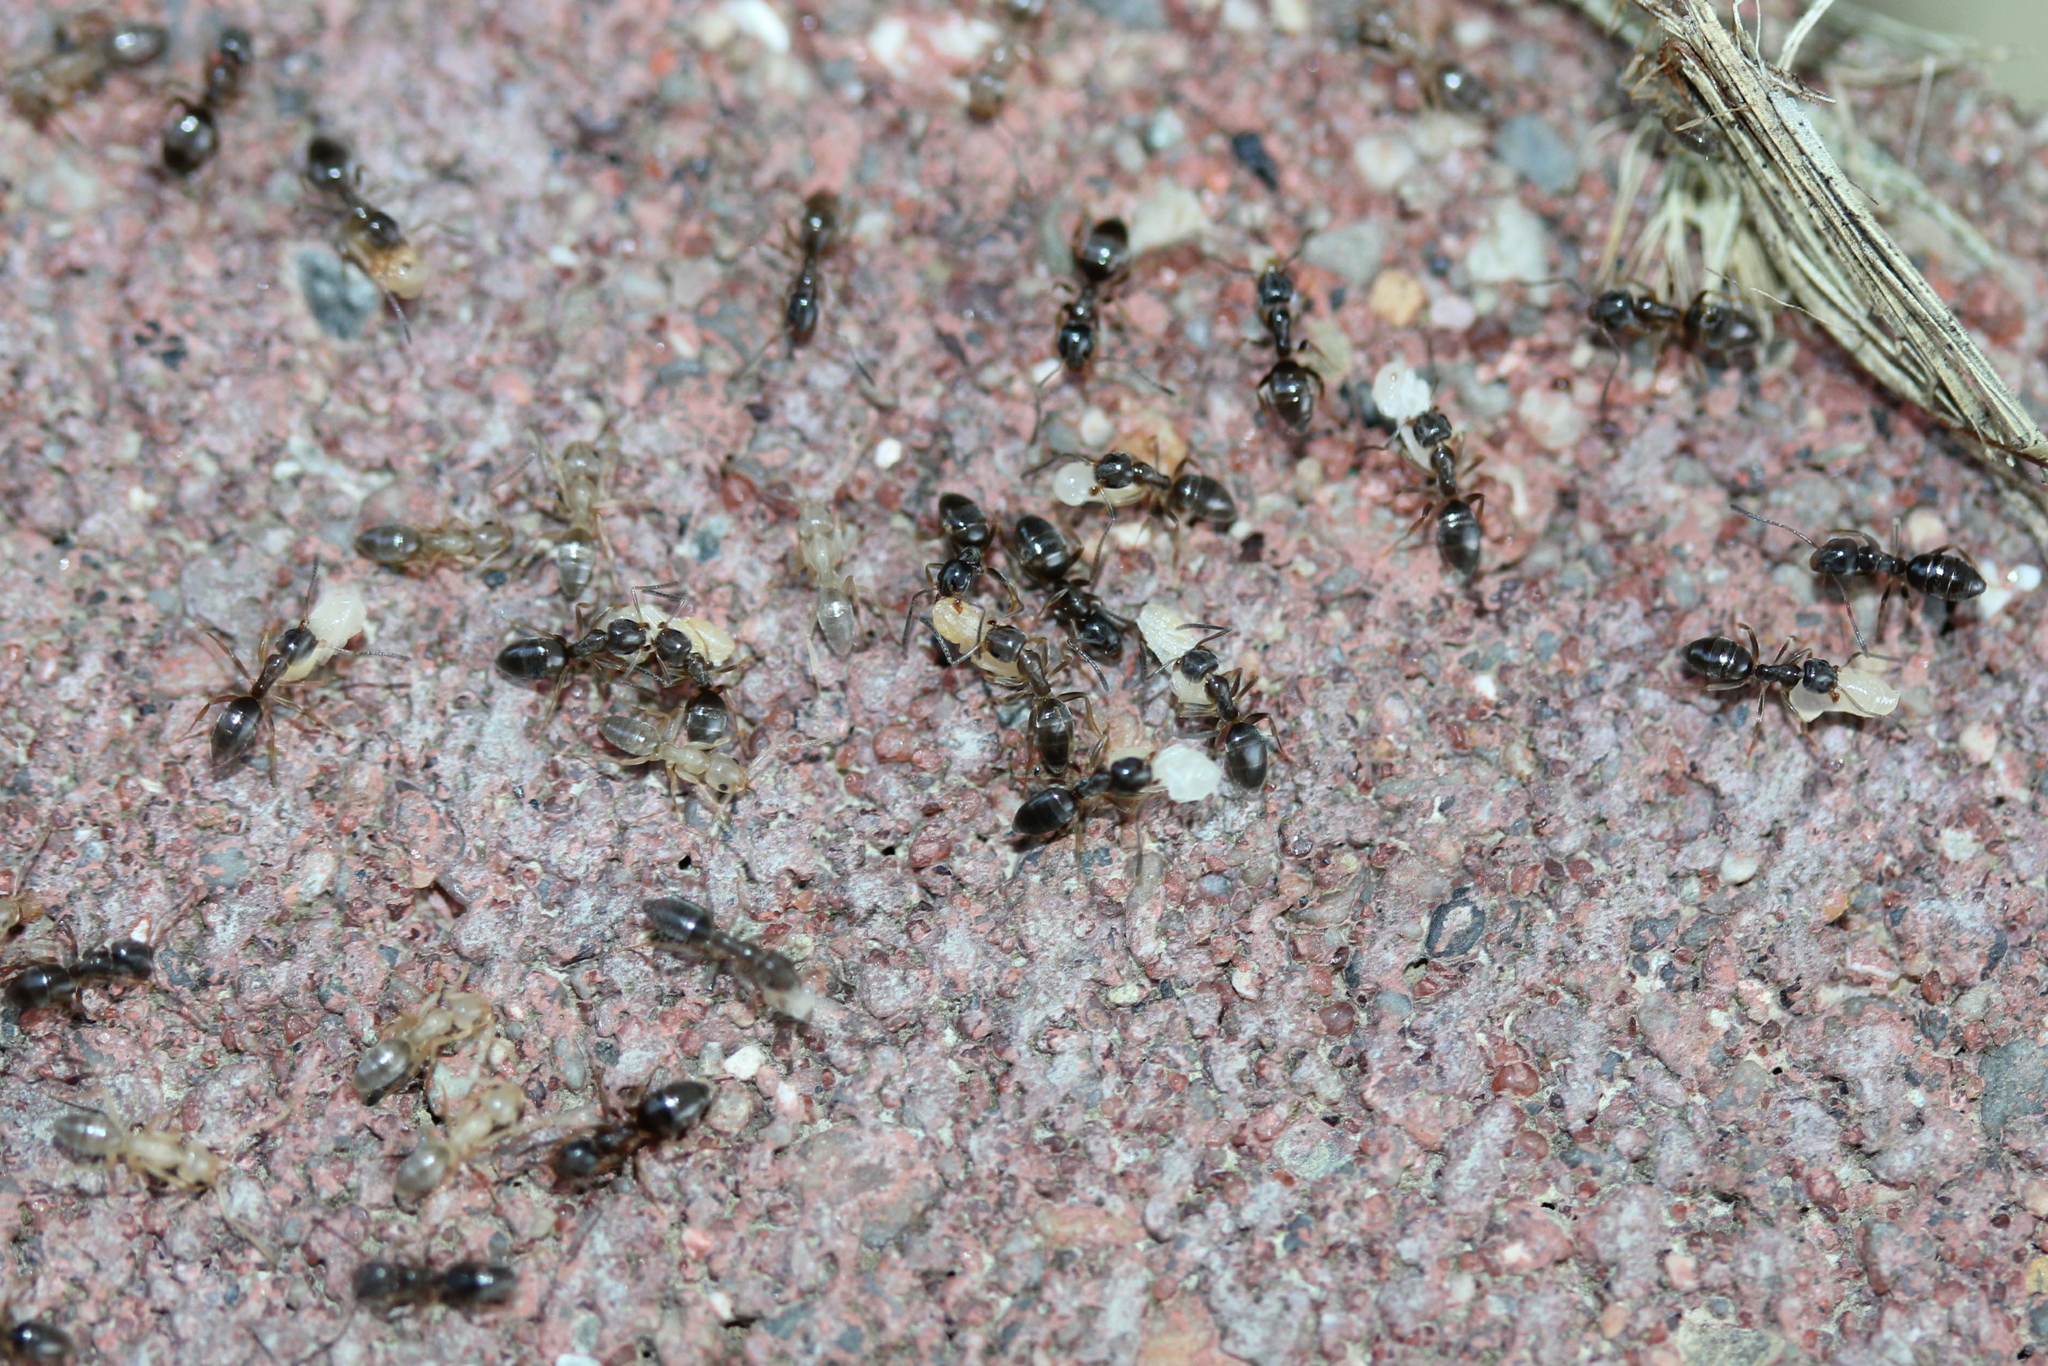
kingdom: Animalia
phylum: Arthropoda
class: Insecta
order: Hymenoptera
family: Formicidae
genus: Tapinoma
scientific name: Tapinoma sessile
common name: Odorous house ant
